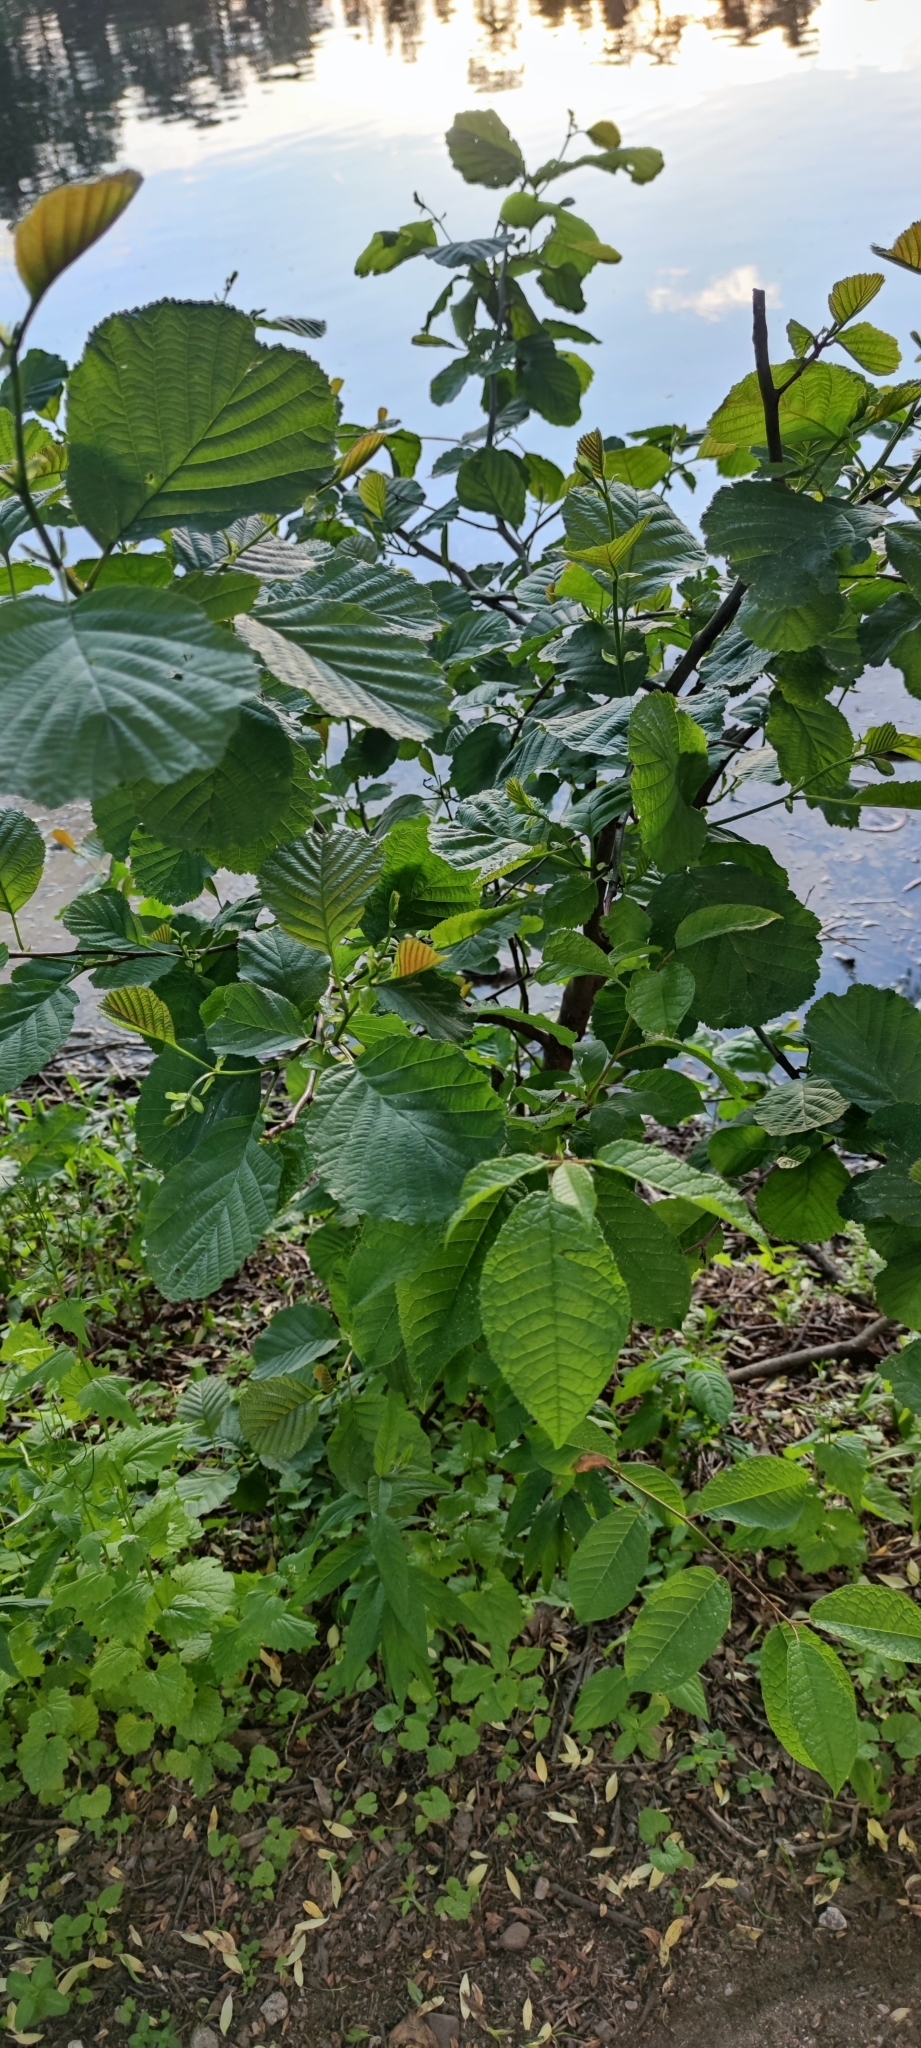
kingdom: Plantae
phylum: Tracheophyta
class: Magnoliopsida
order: Fagales
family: Betulaceae
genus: Alnus
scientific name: Alnus glutinosa
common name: Black alder
